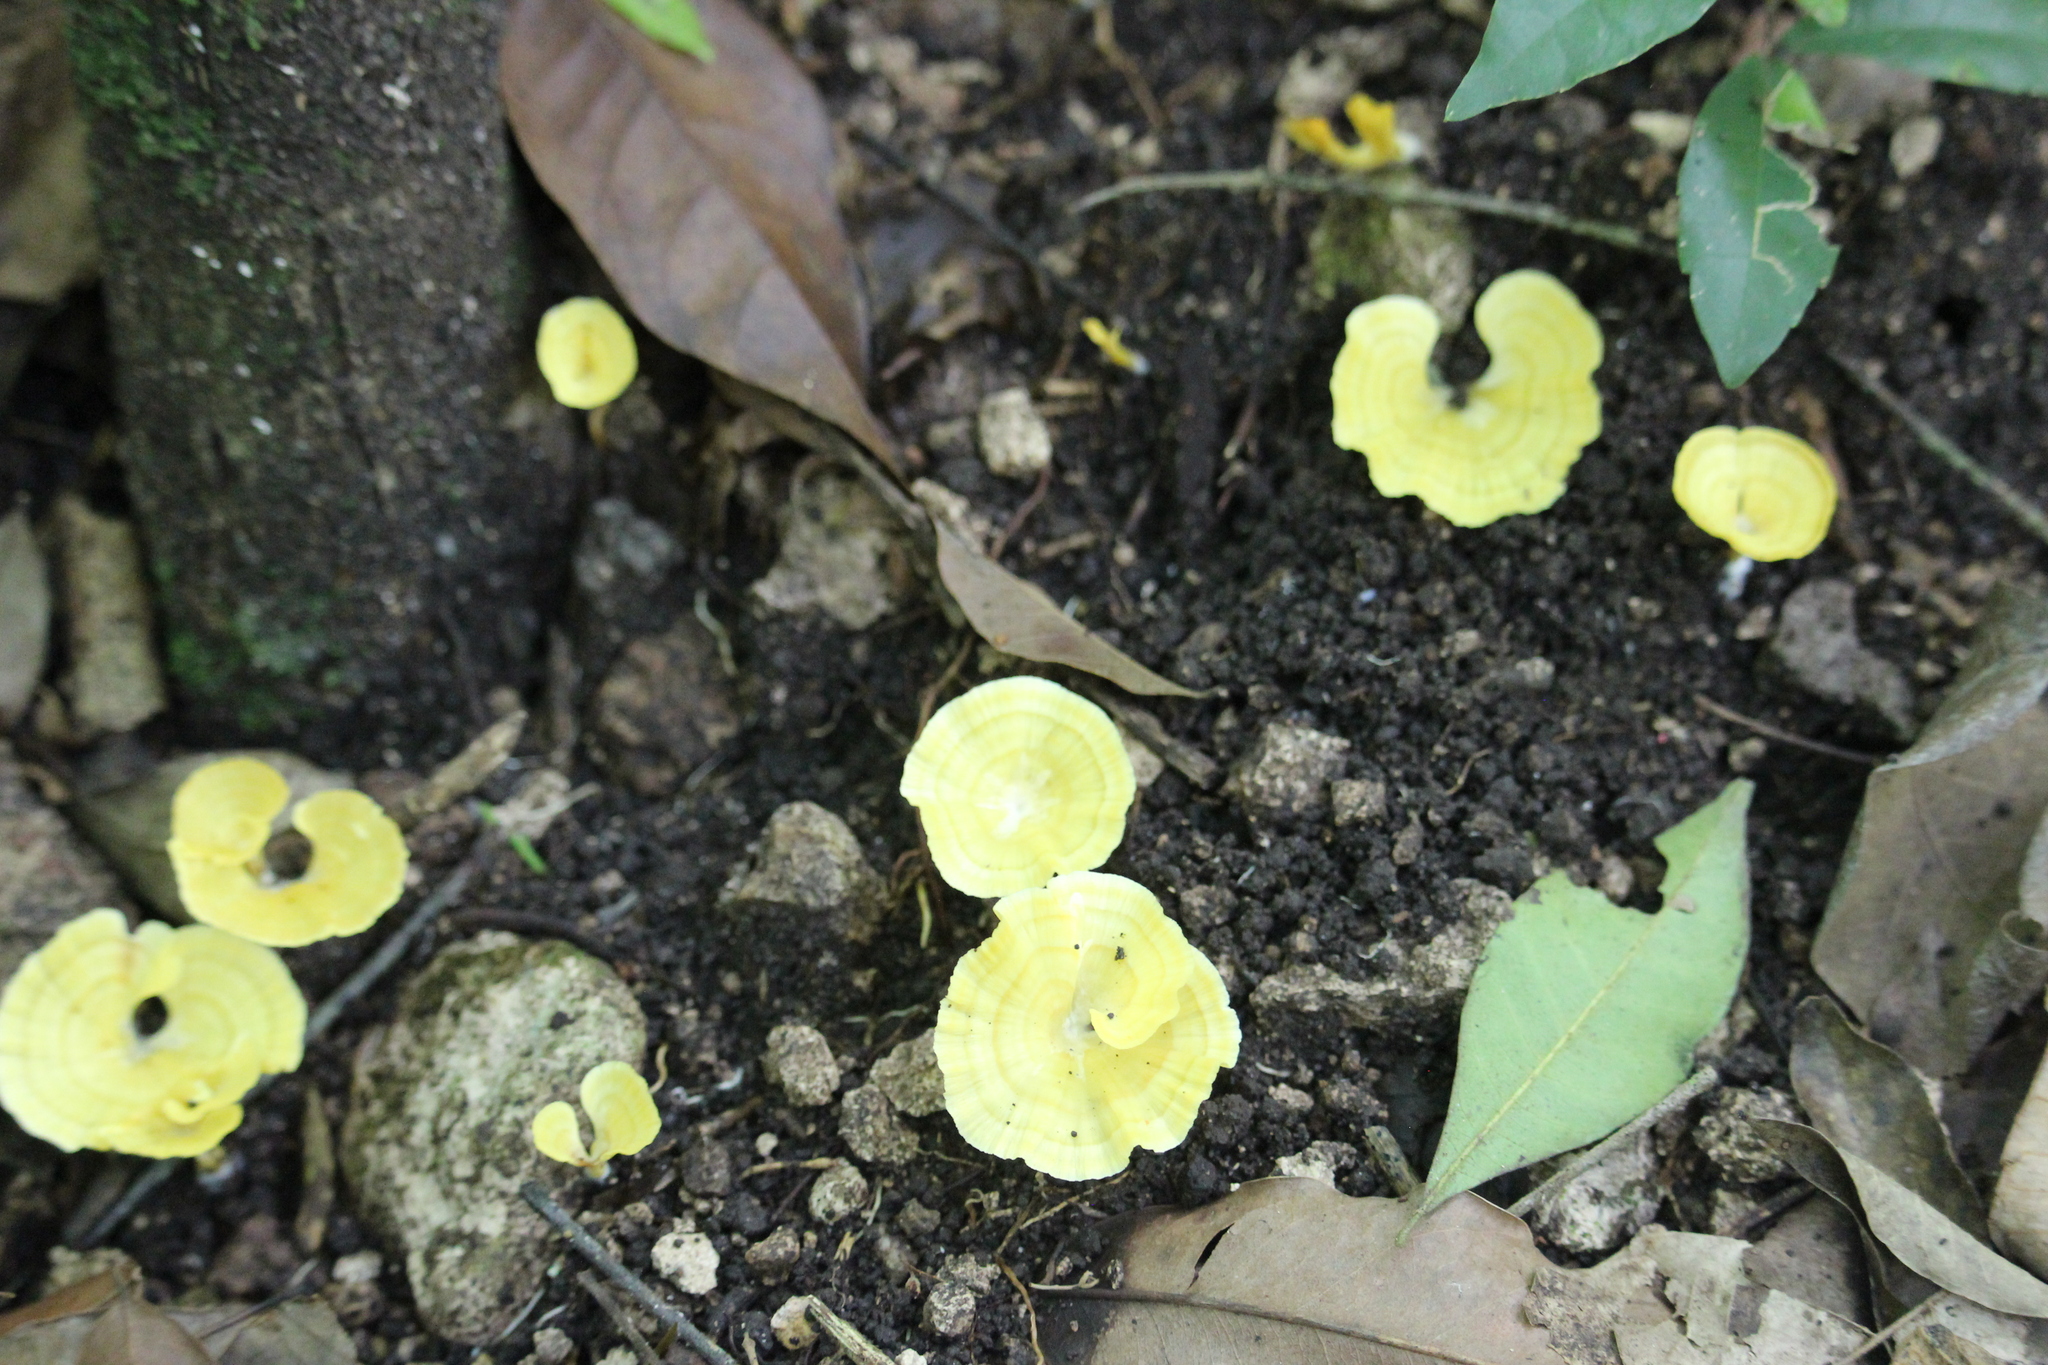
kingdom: Fungi
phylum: Basidiomycota
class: Agaricomycetes
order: Hymenochaetales
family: Rickenellaceae
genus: Cotylidia
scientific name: Cotylidia aurantiaca
